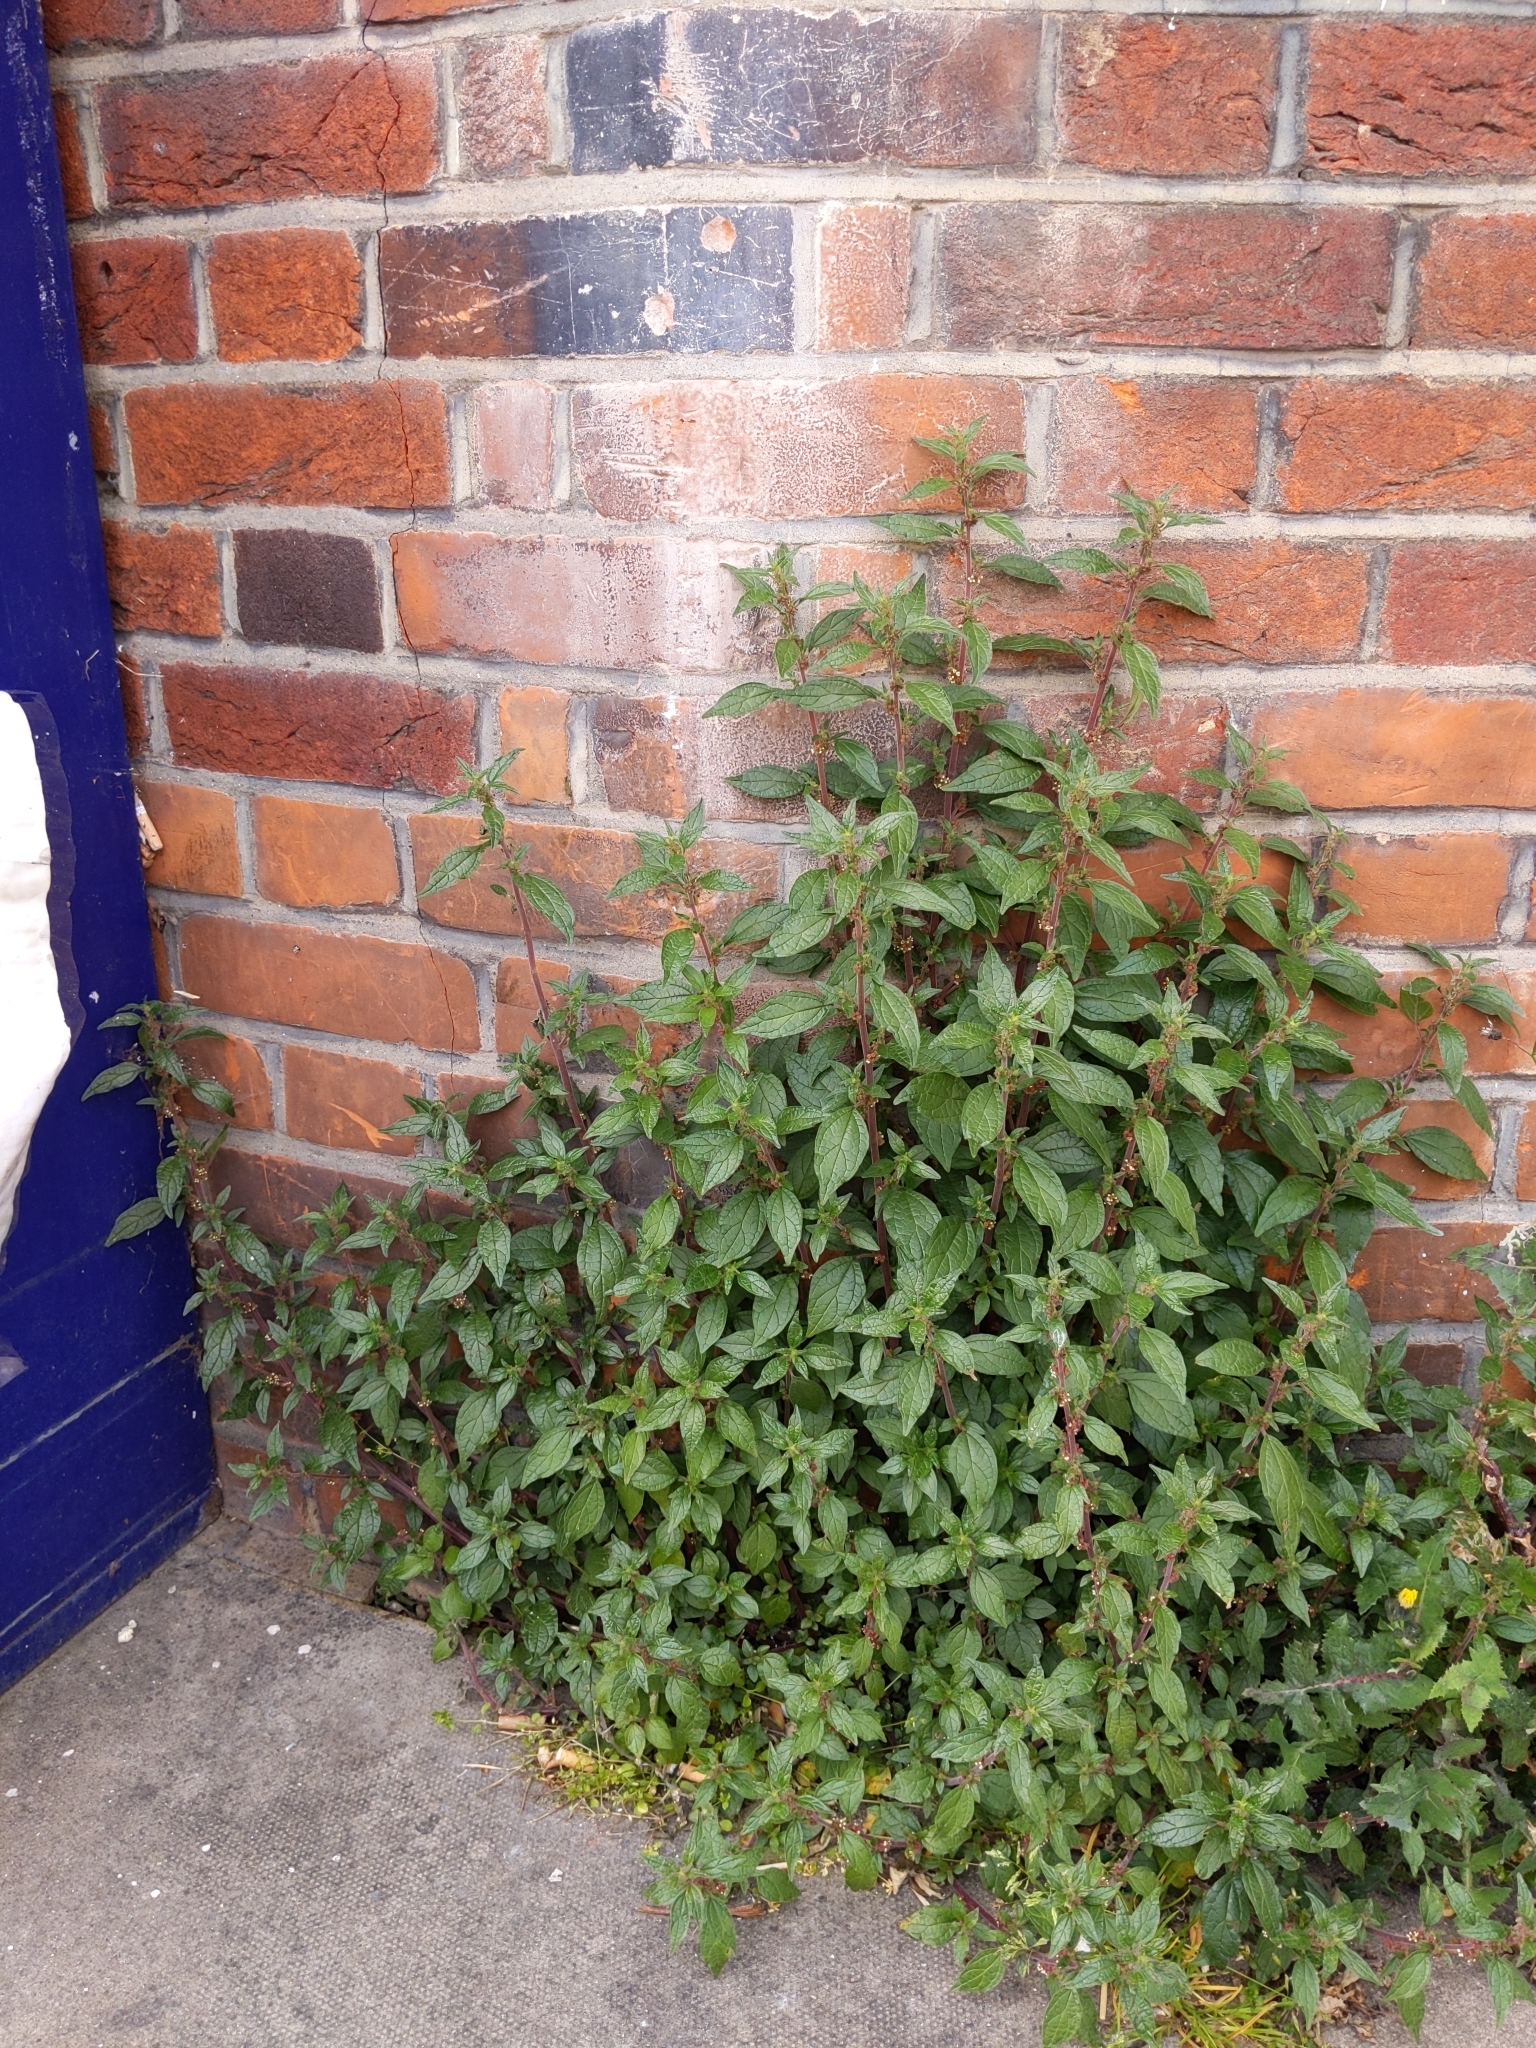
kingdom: Plantae
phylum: Tracheophyta
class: Magnoliopsida
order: Rosales
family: Urticaceae
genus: Parietaria
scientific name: Parietaria judaica
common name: Pellitory-of-the-wall
